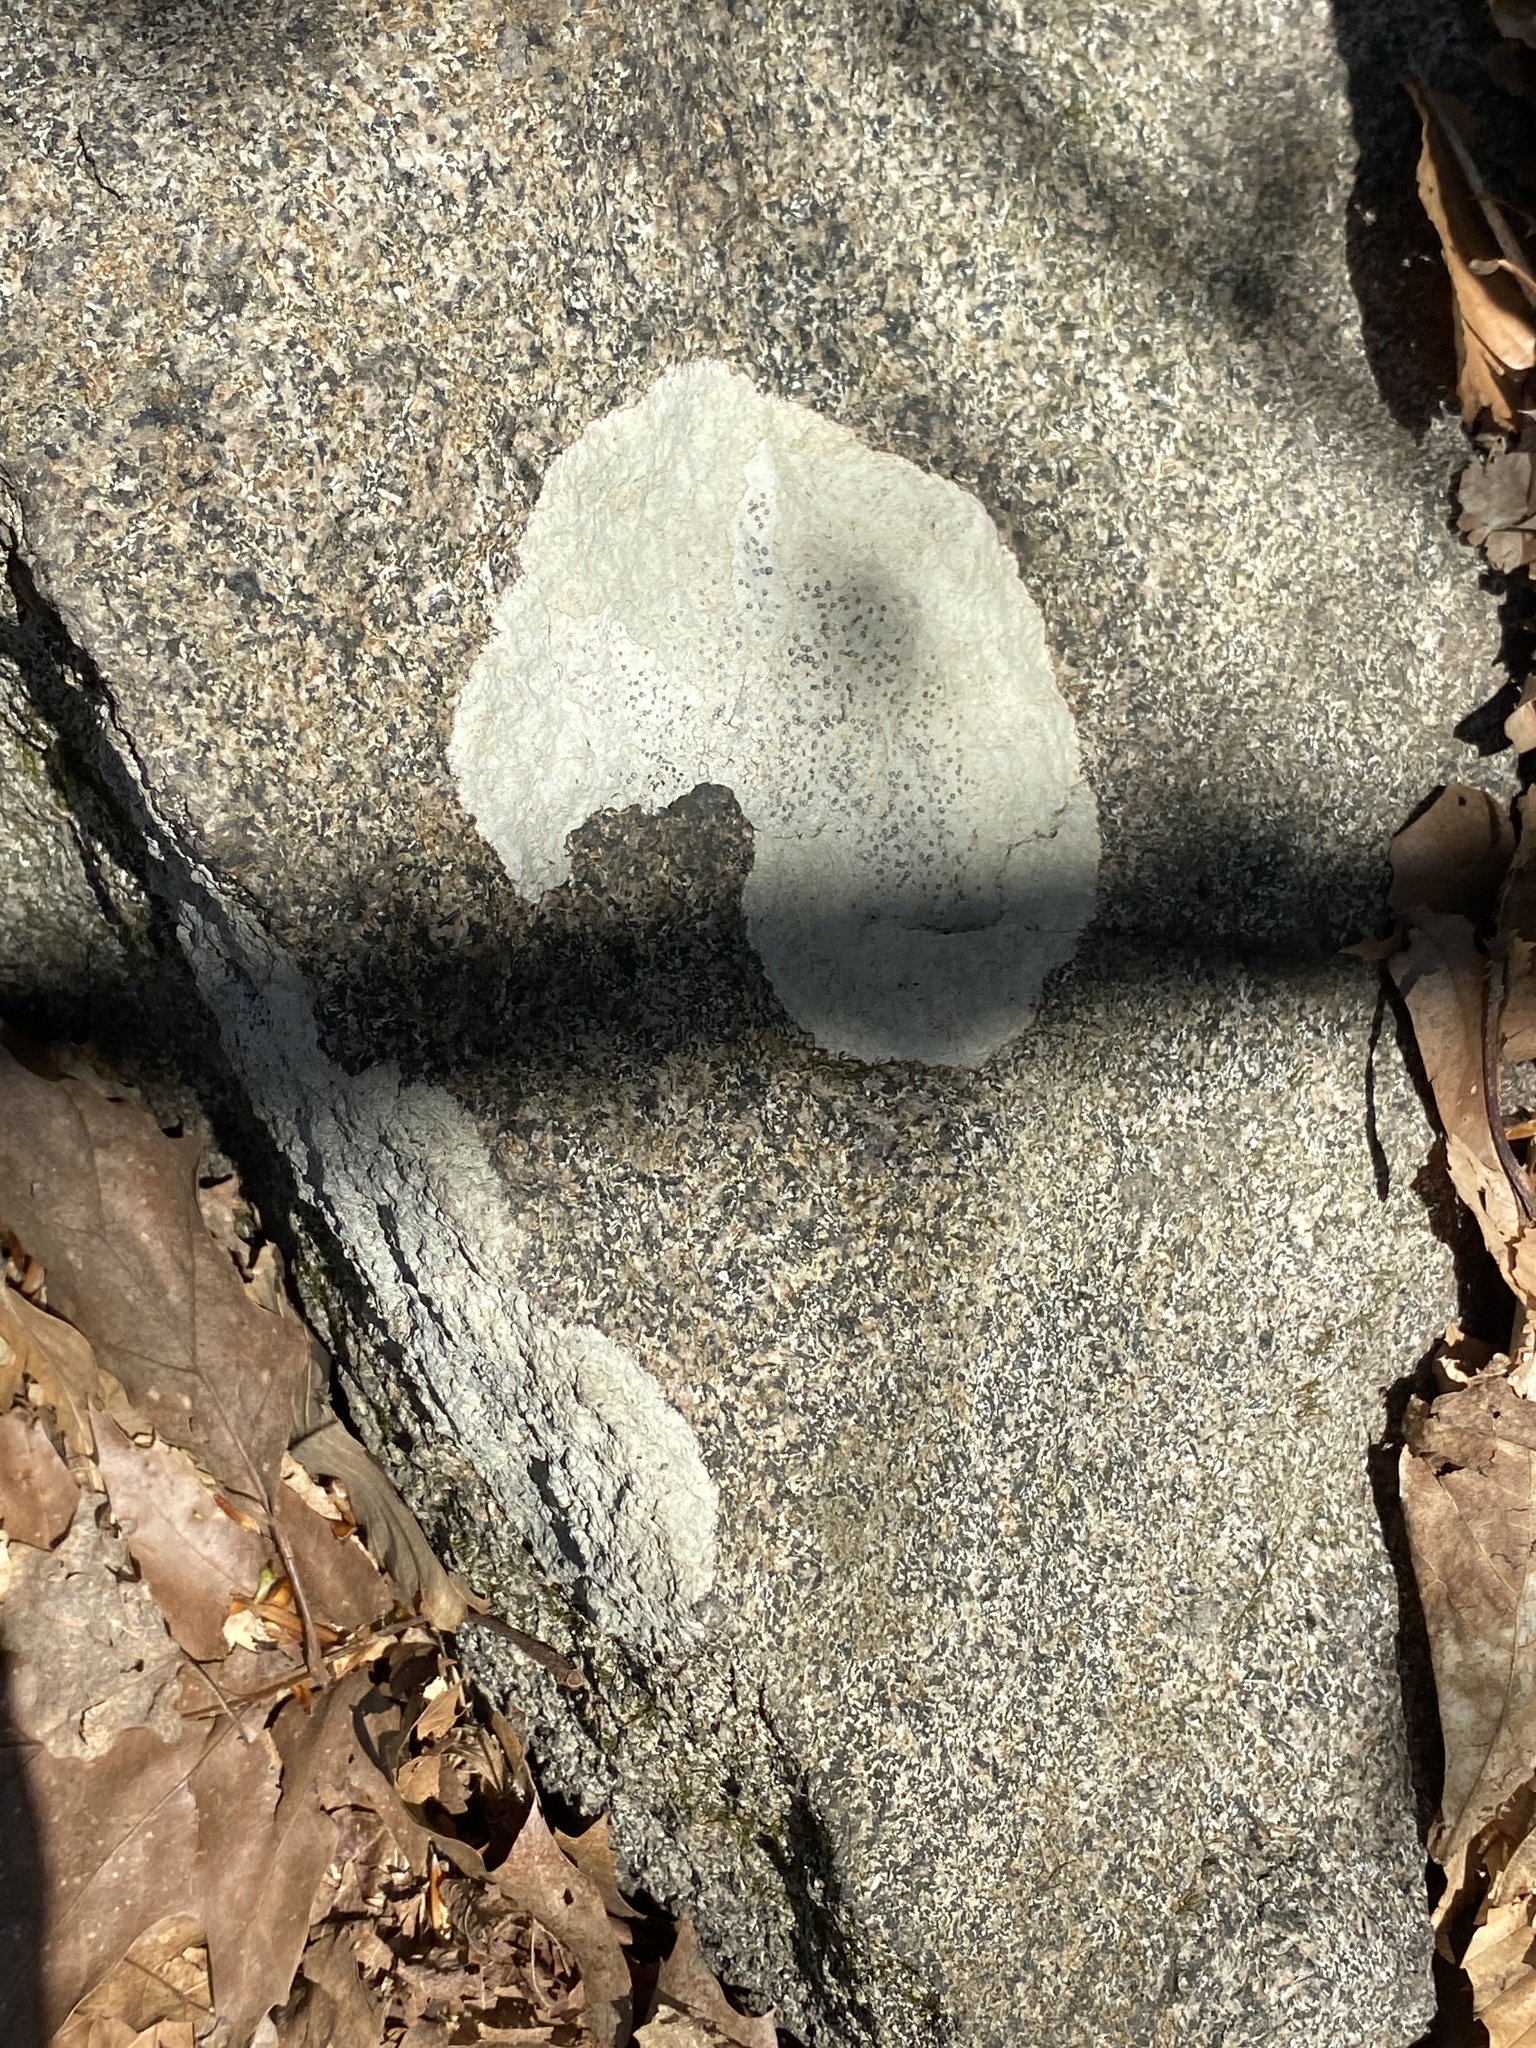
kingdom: Fungi
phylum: Ascomycota
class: Lecanoromycetes
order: Lecideales
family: Lecideaceae
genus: Porpidia
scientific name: Porpidia albocaerulescens
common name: Smokey-eyed boulder lichen
